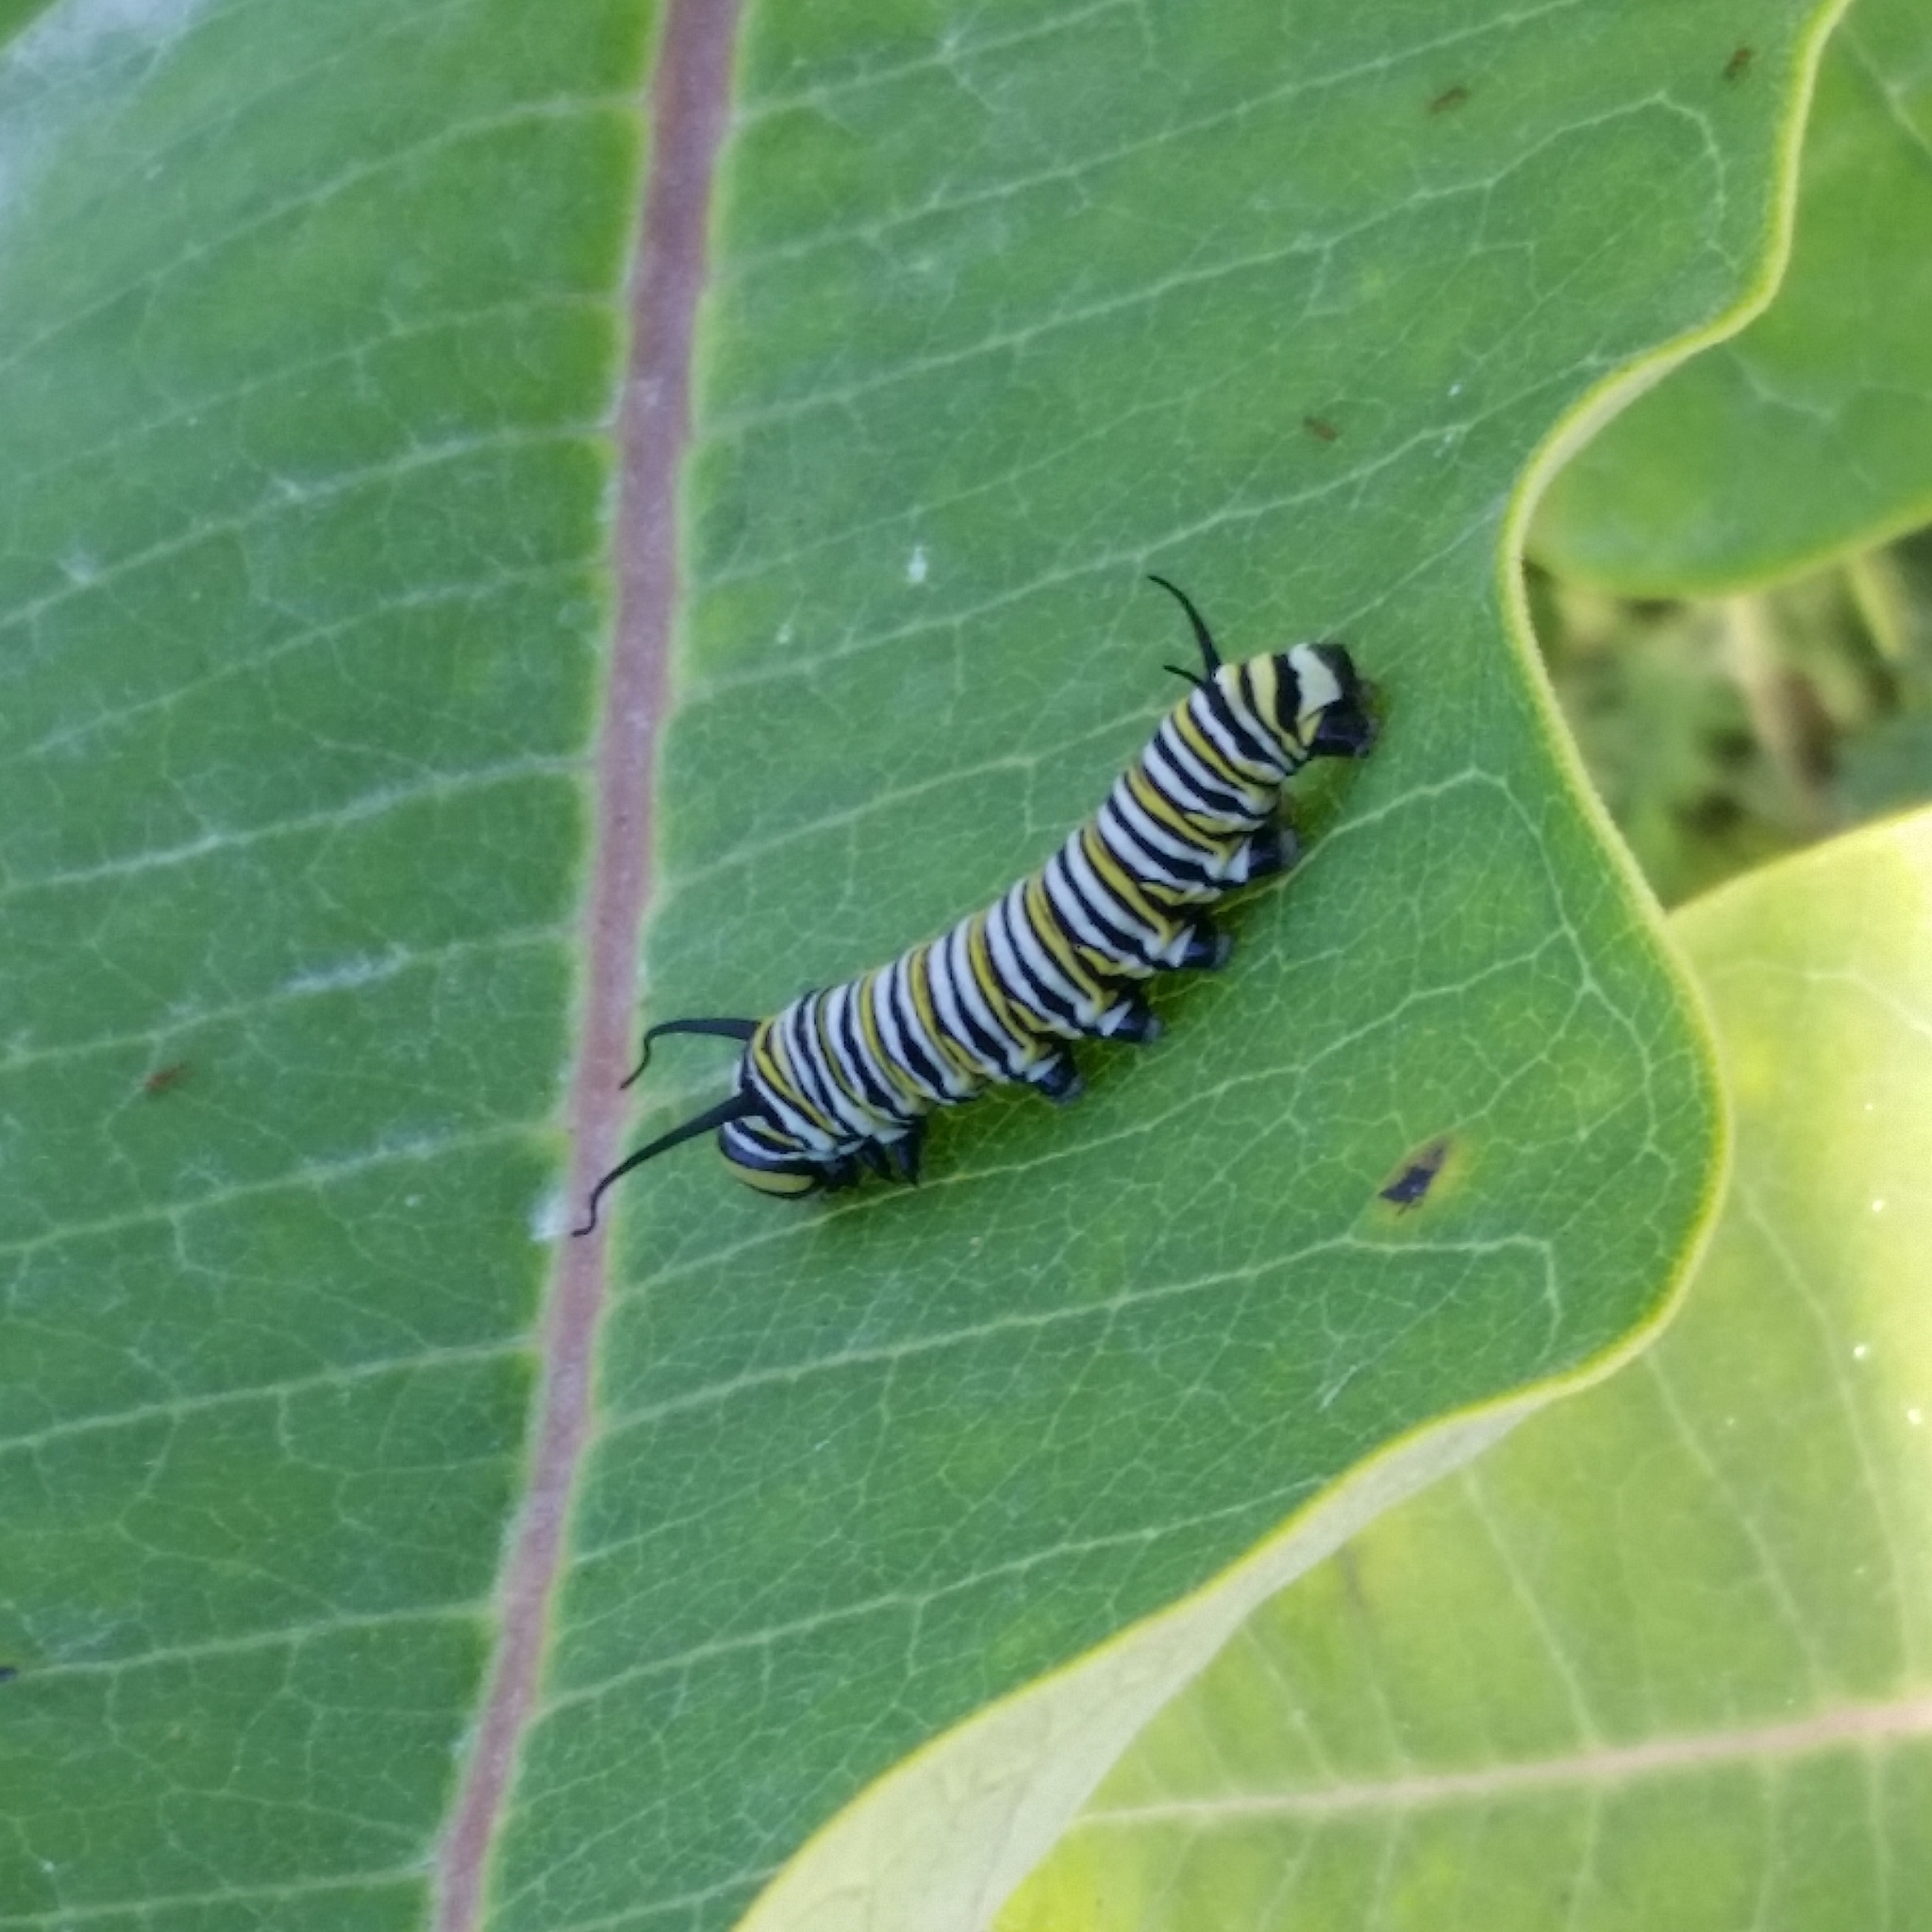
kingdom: Animalia
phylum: Arthropoda
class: Insecta
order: Lepidoptera
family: Nymphalidae
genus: Danaus
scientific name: Danaus plexippus
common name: Monarch
